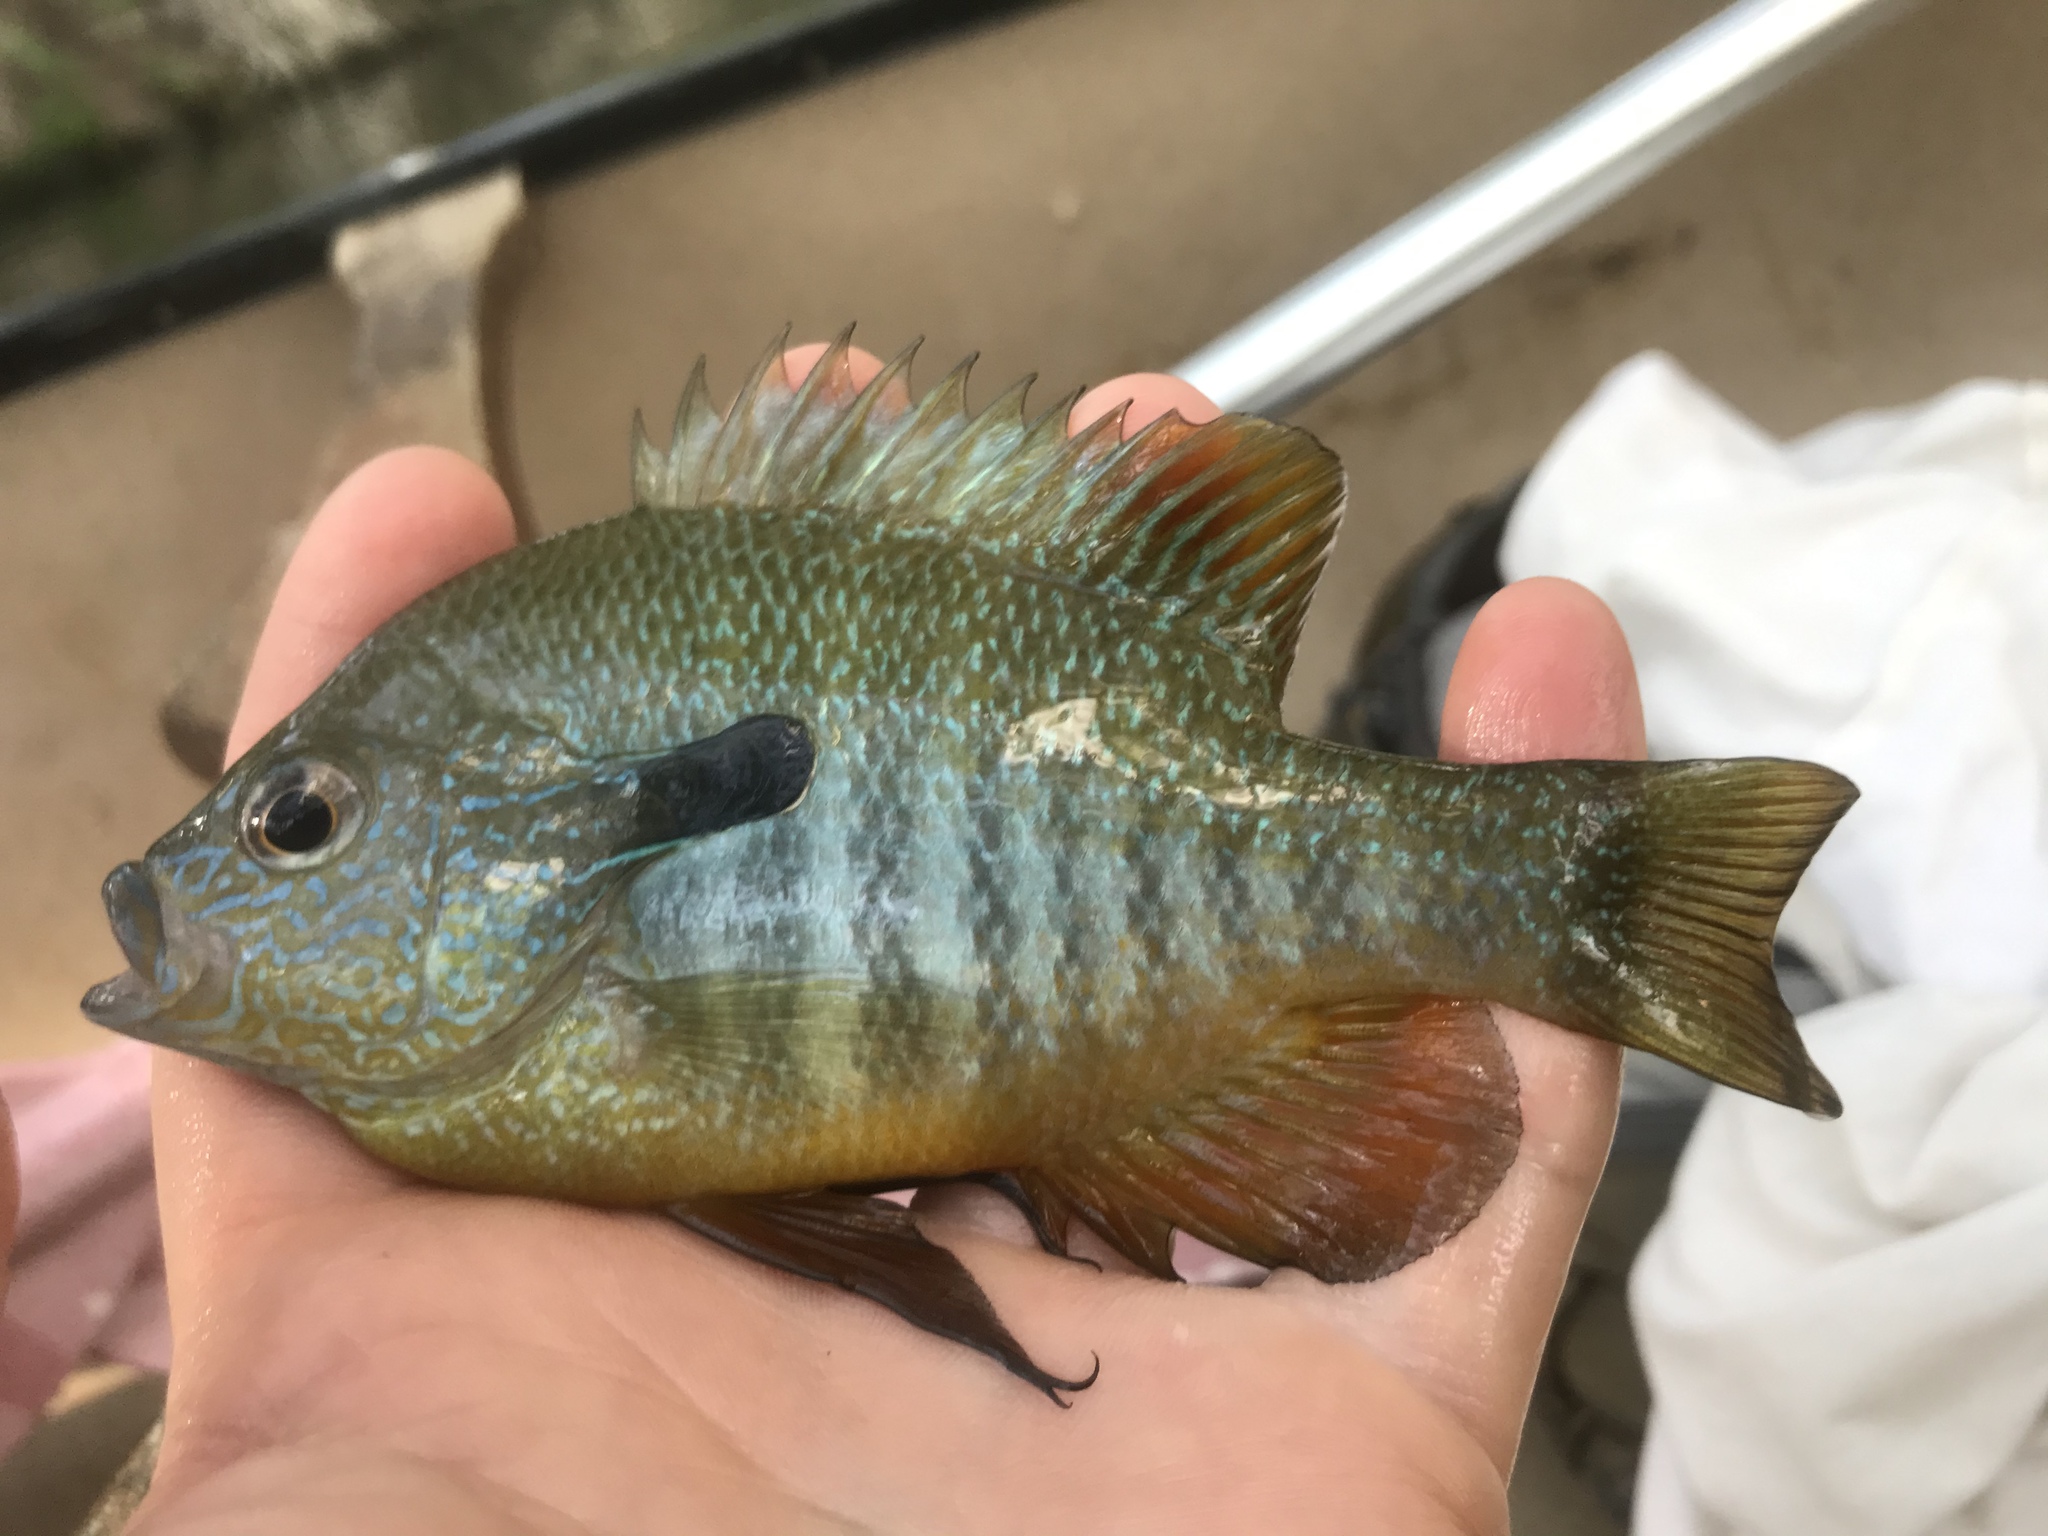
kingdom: Animalia
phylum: Chordata
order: Perciformes
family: Centrarchidae
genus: Lepomis
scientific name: Lepomis megalotis
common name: Longear sunfish
